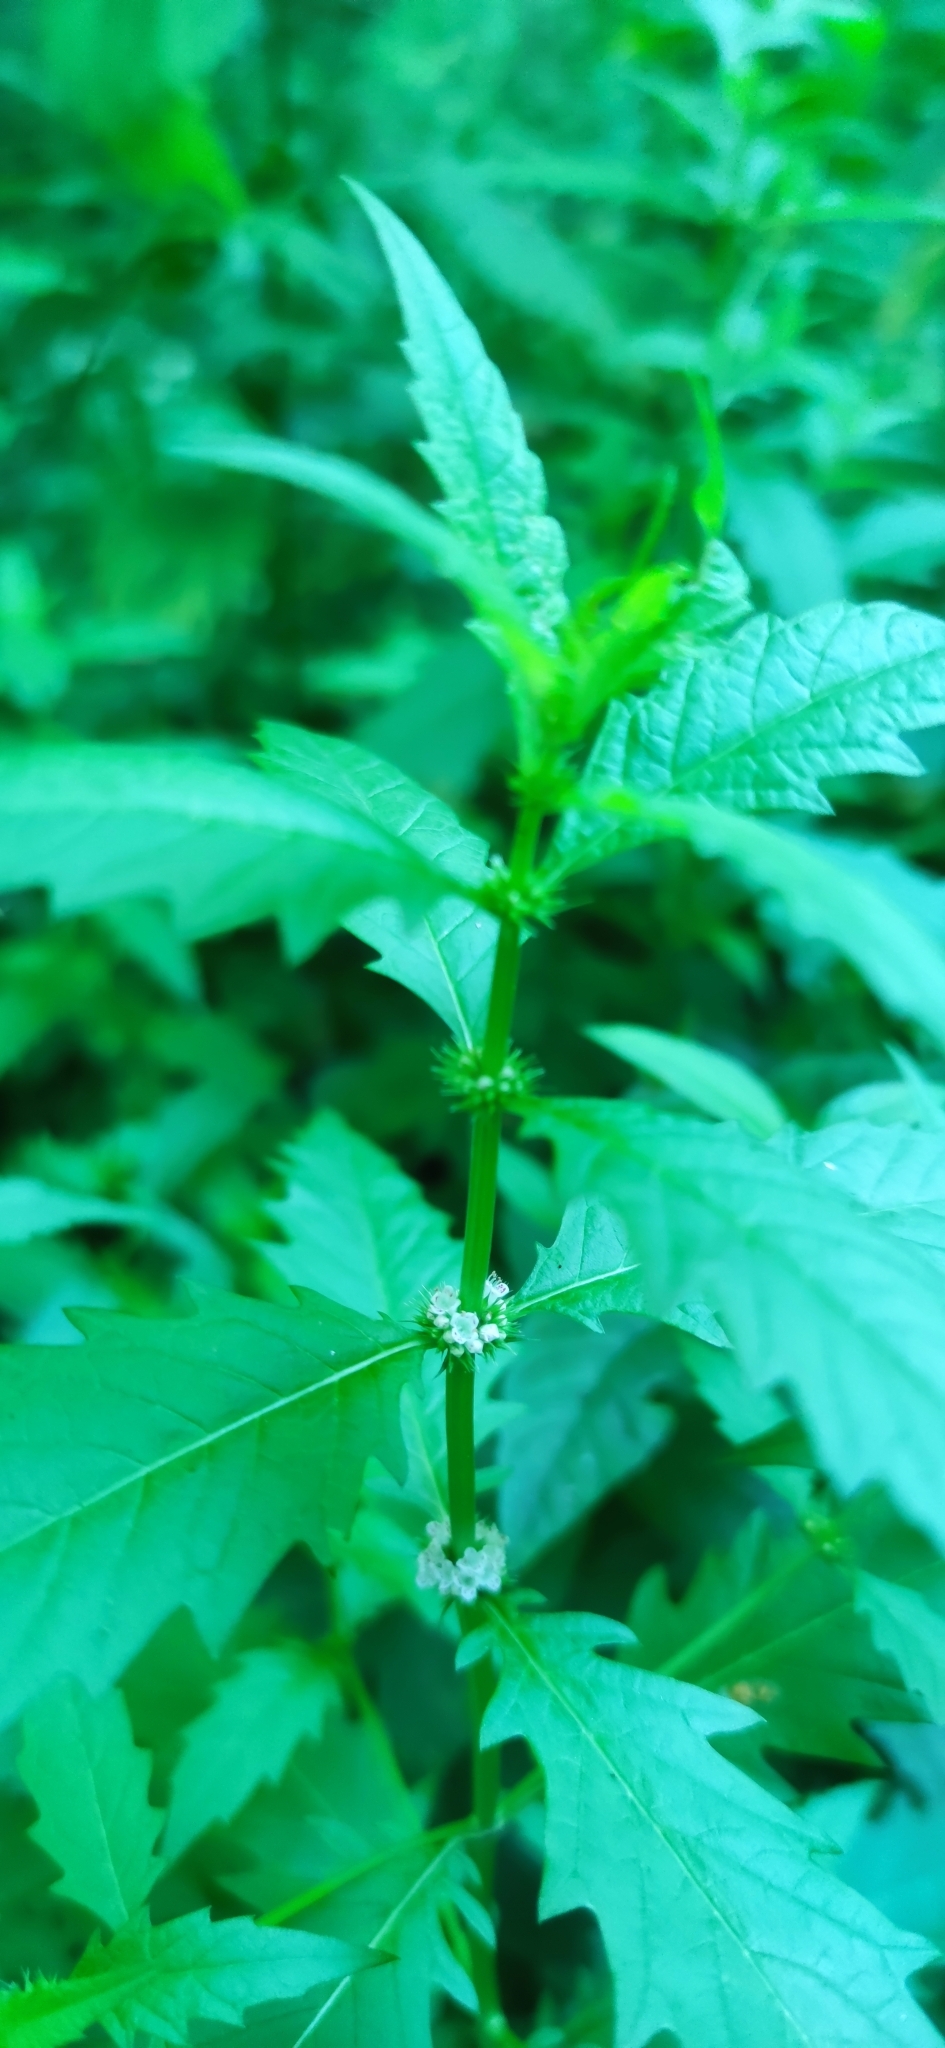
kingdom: Plantae
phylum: Tracheophyta
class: Magnoliopsida
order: Lamiales
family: Lamiaceae
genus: Lycopus
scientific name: Lycopus europaeus
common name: European bugleweed
